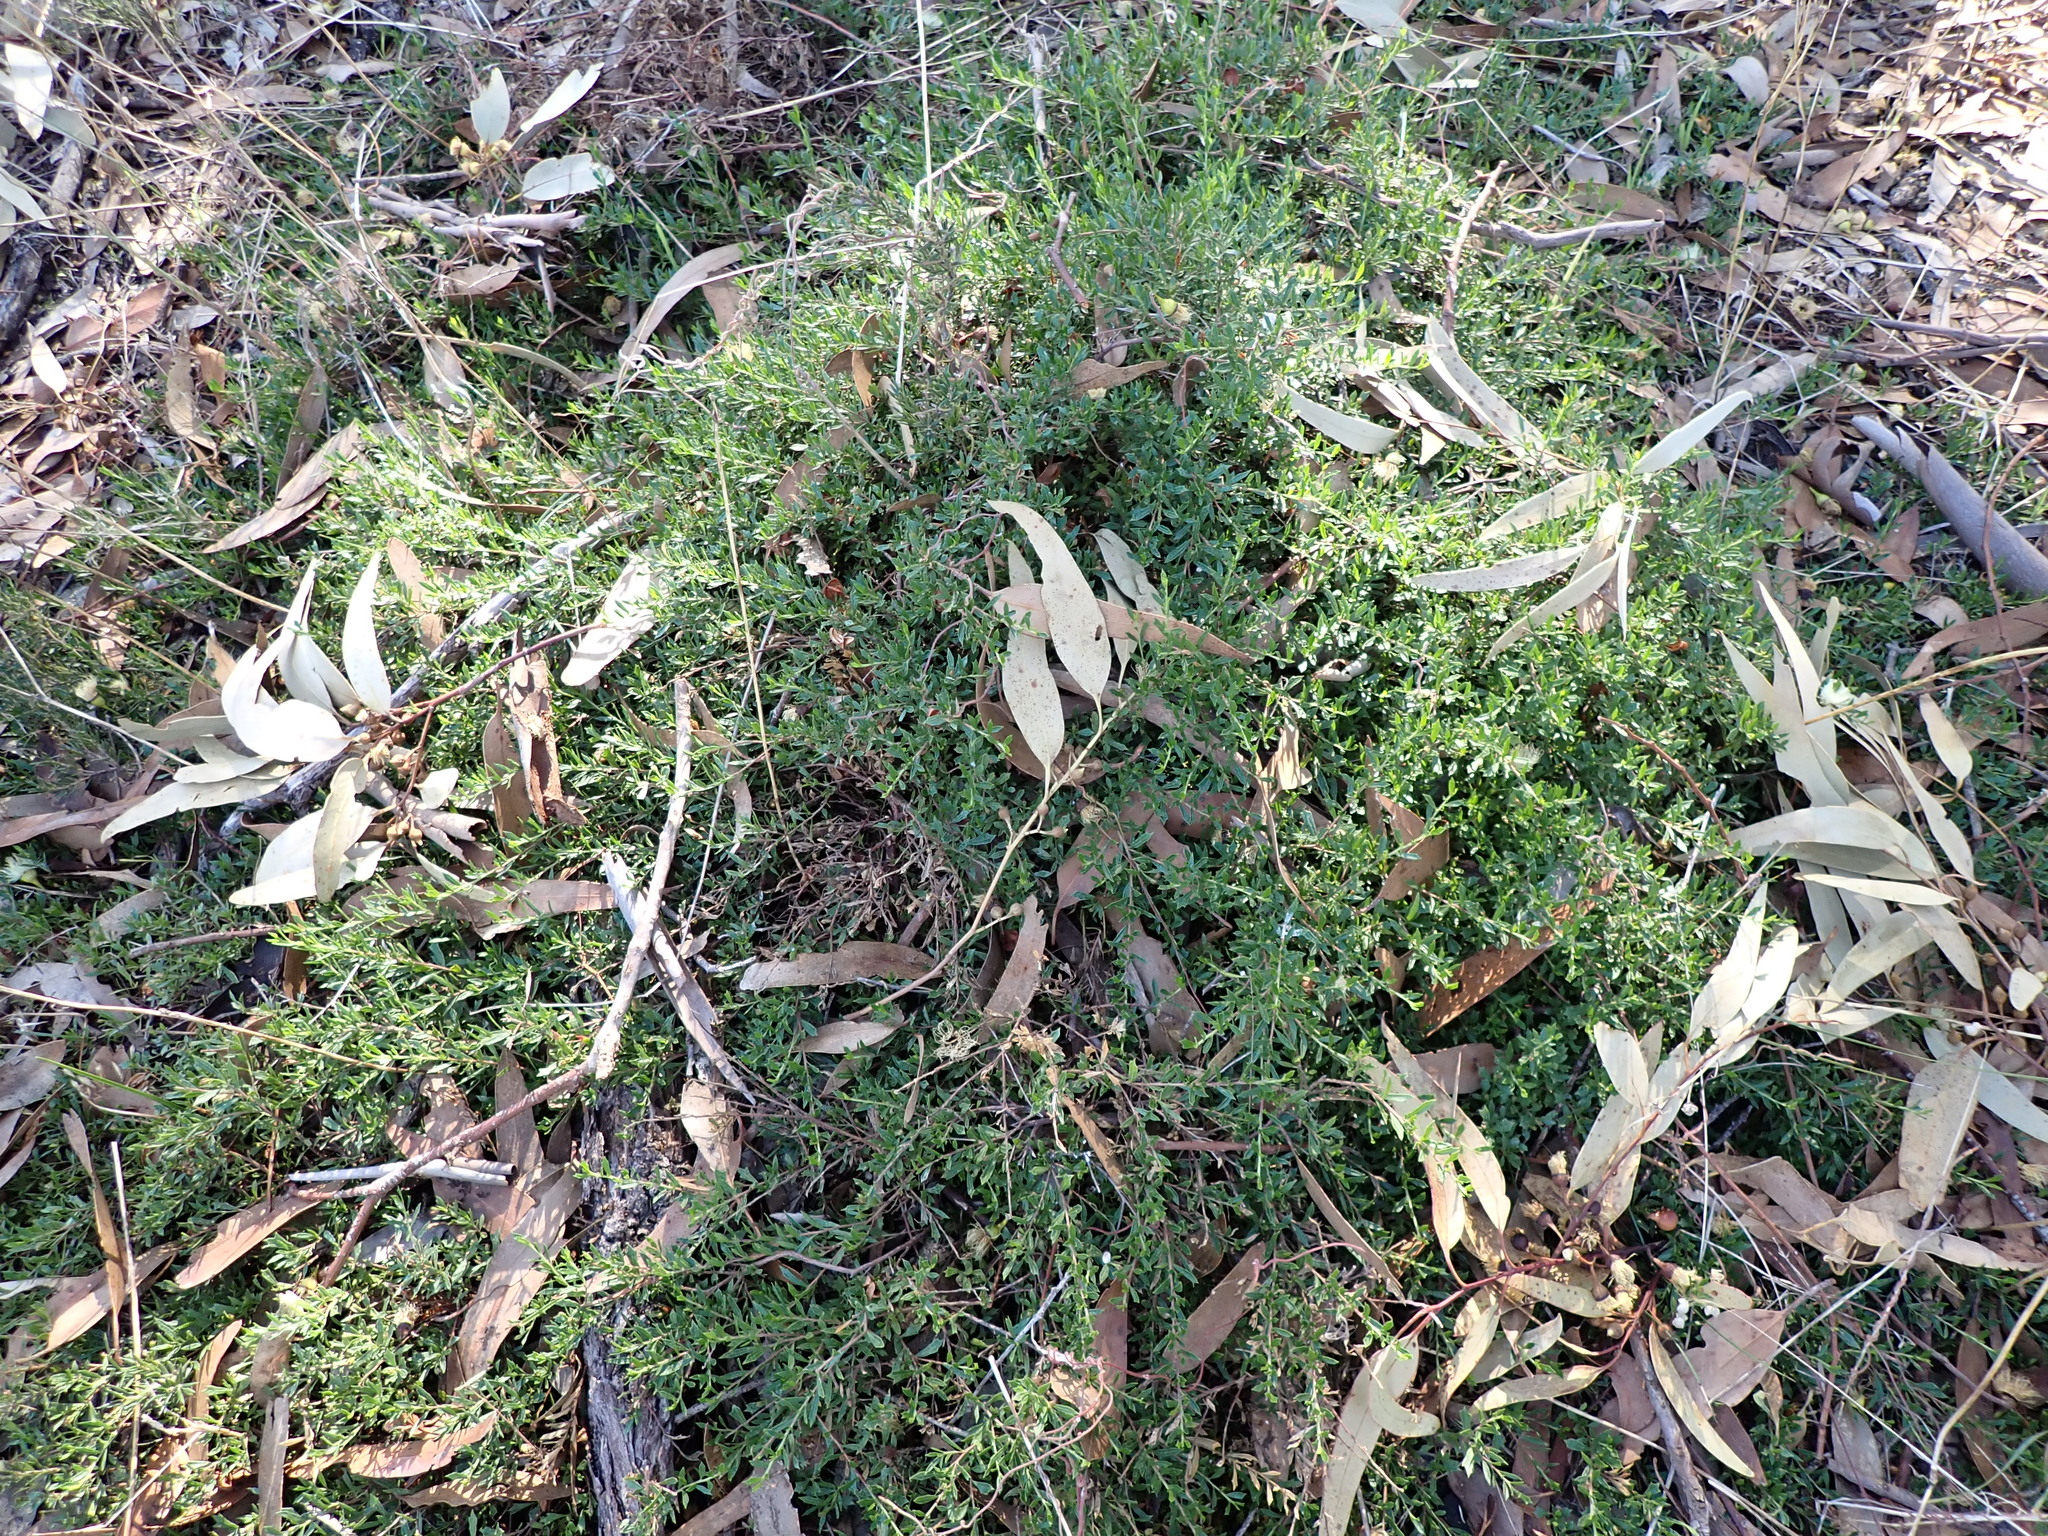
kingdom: Plantae
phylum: Tracheophyta
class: Magnoliopsida
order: Sapindales
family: Sapindaceae
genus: Dodonaea
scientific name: Dodonaea procumbens
